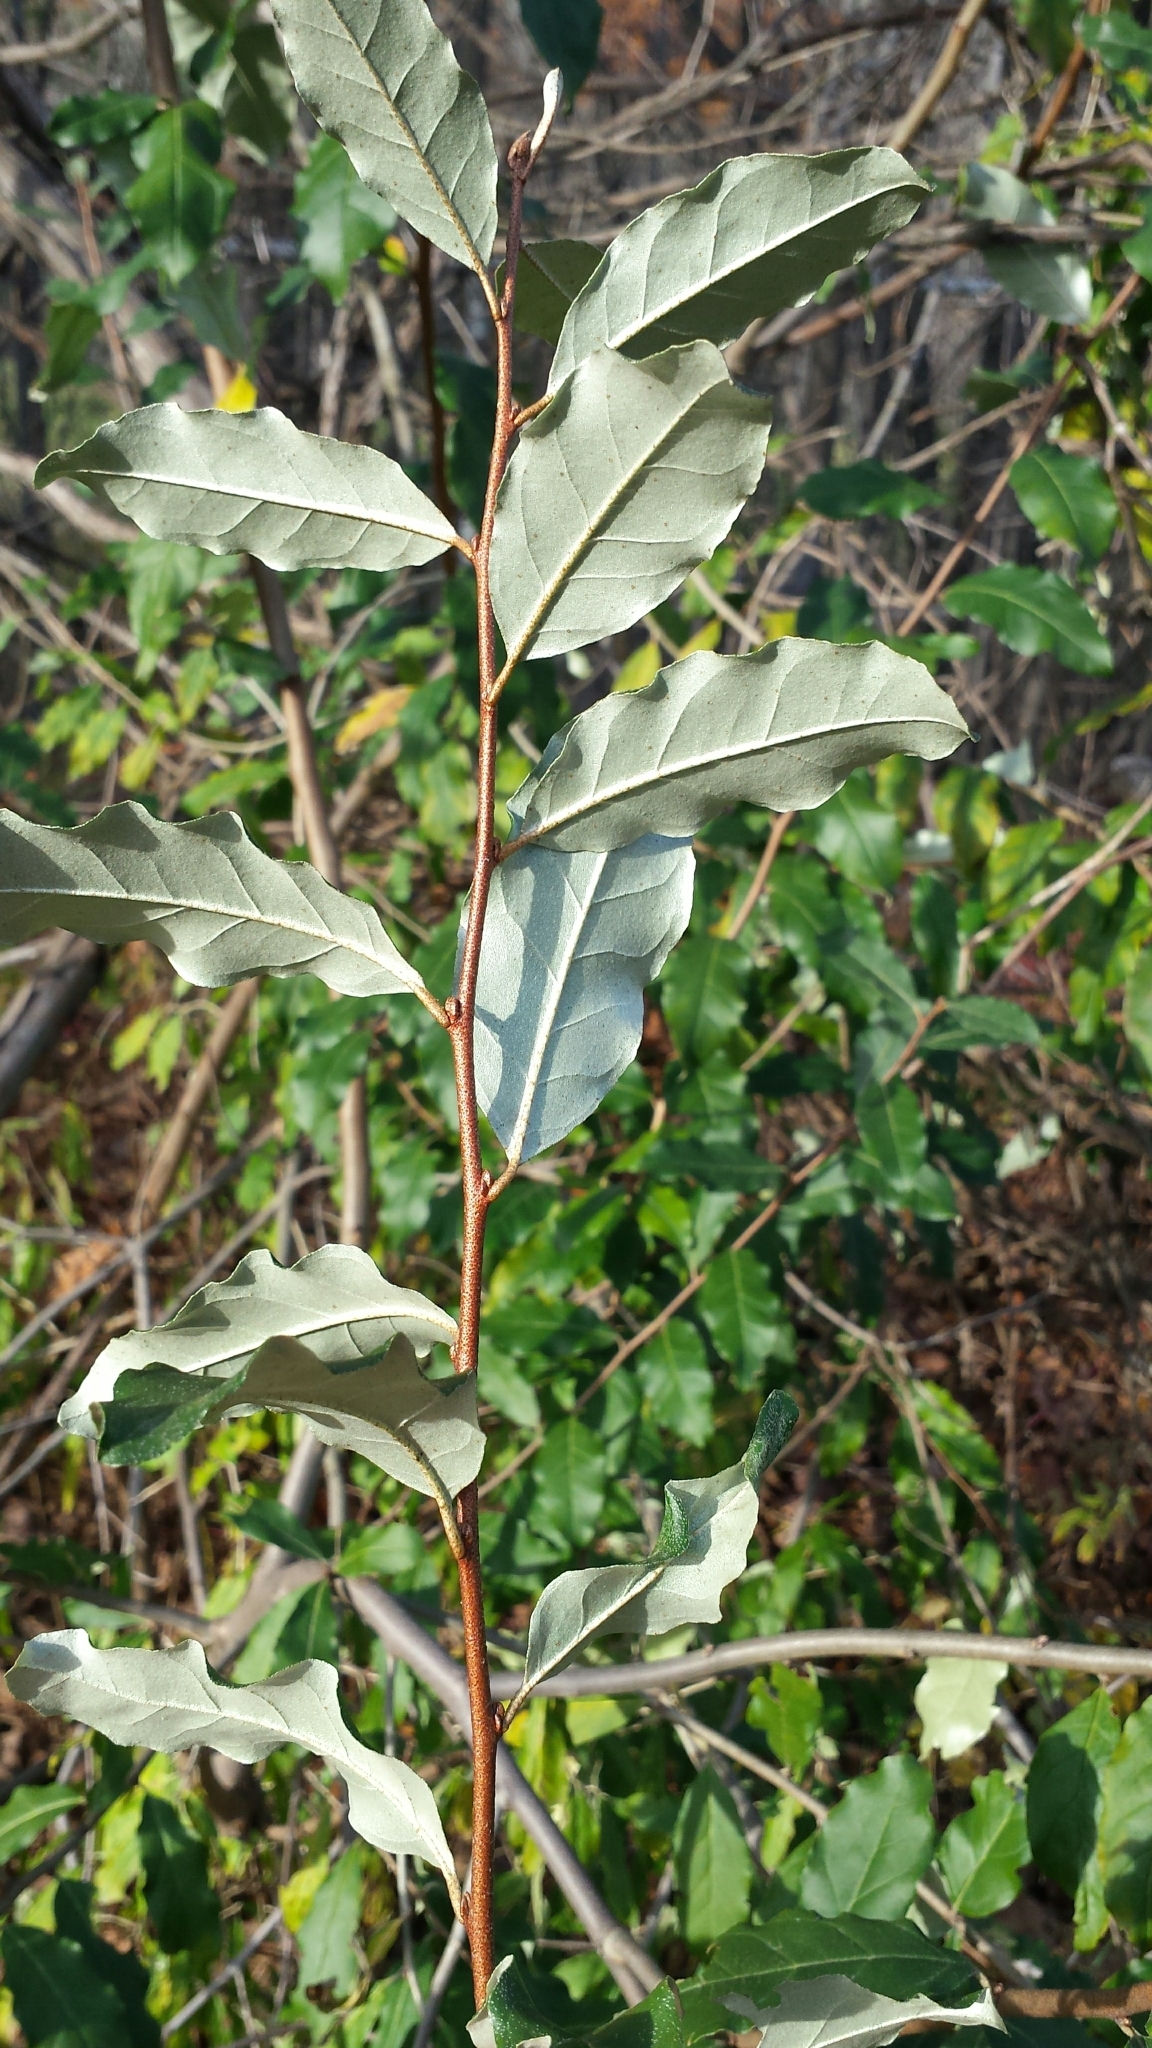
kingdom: Plantae
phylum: Tracheophyta
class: Magnoliopsida
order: Rosales
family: Elaeagnaceae
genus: Elaeagnus
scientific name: Elaeagnus umbellata
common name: Autumn olive
